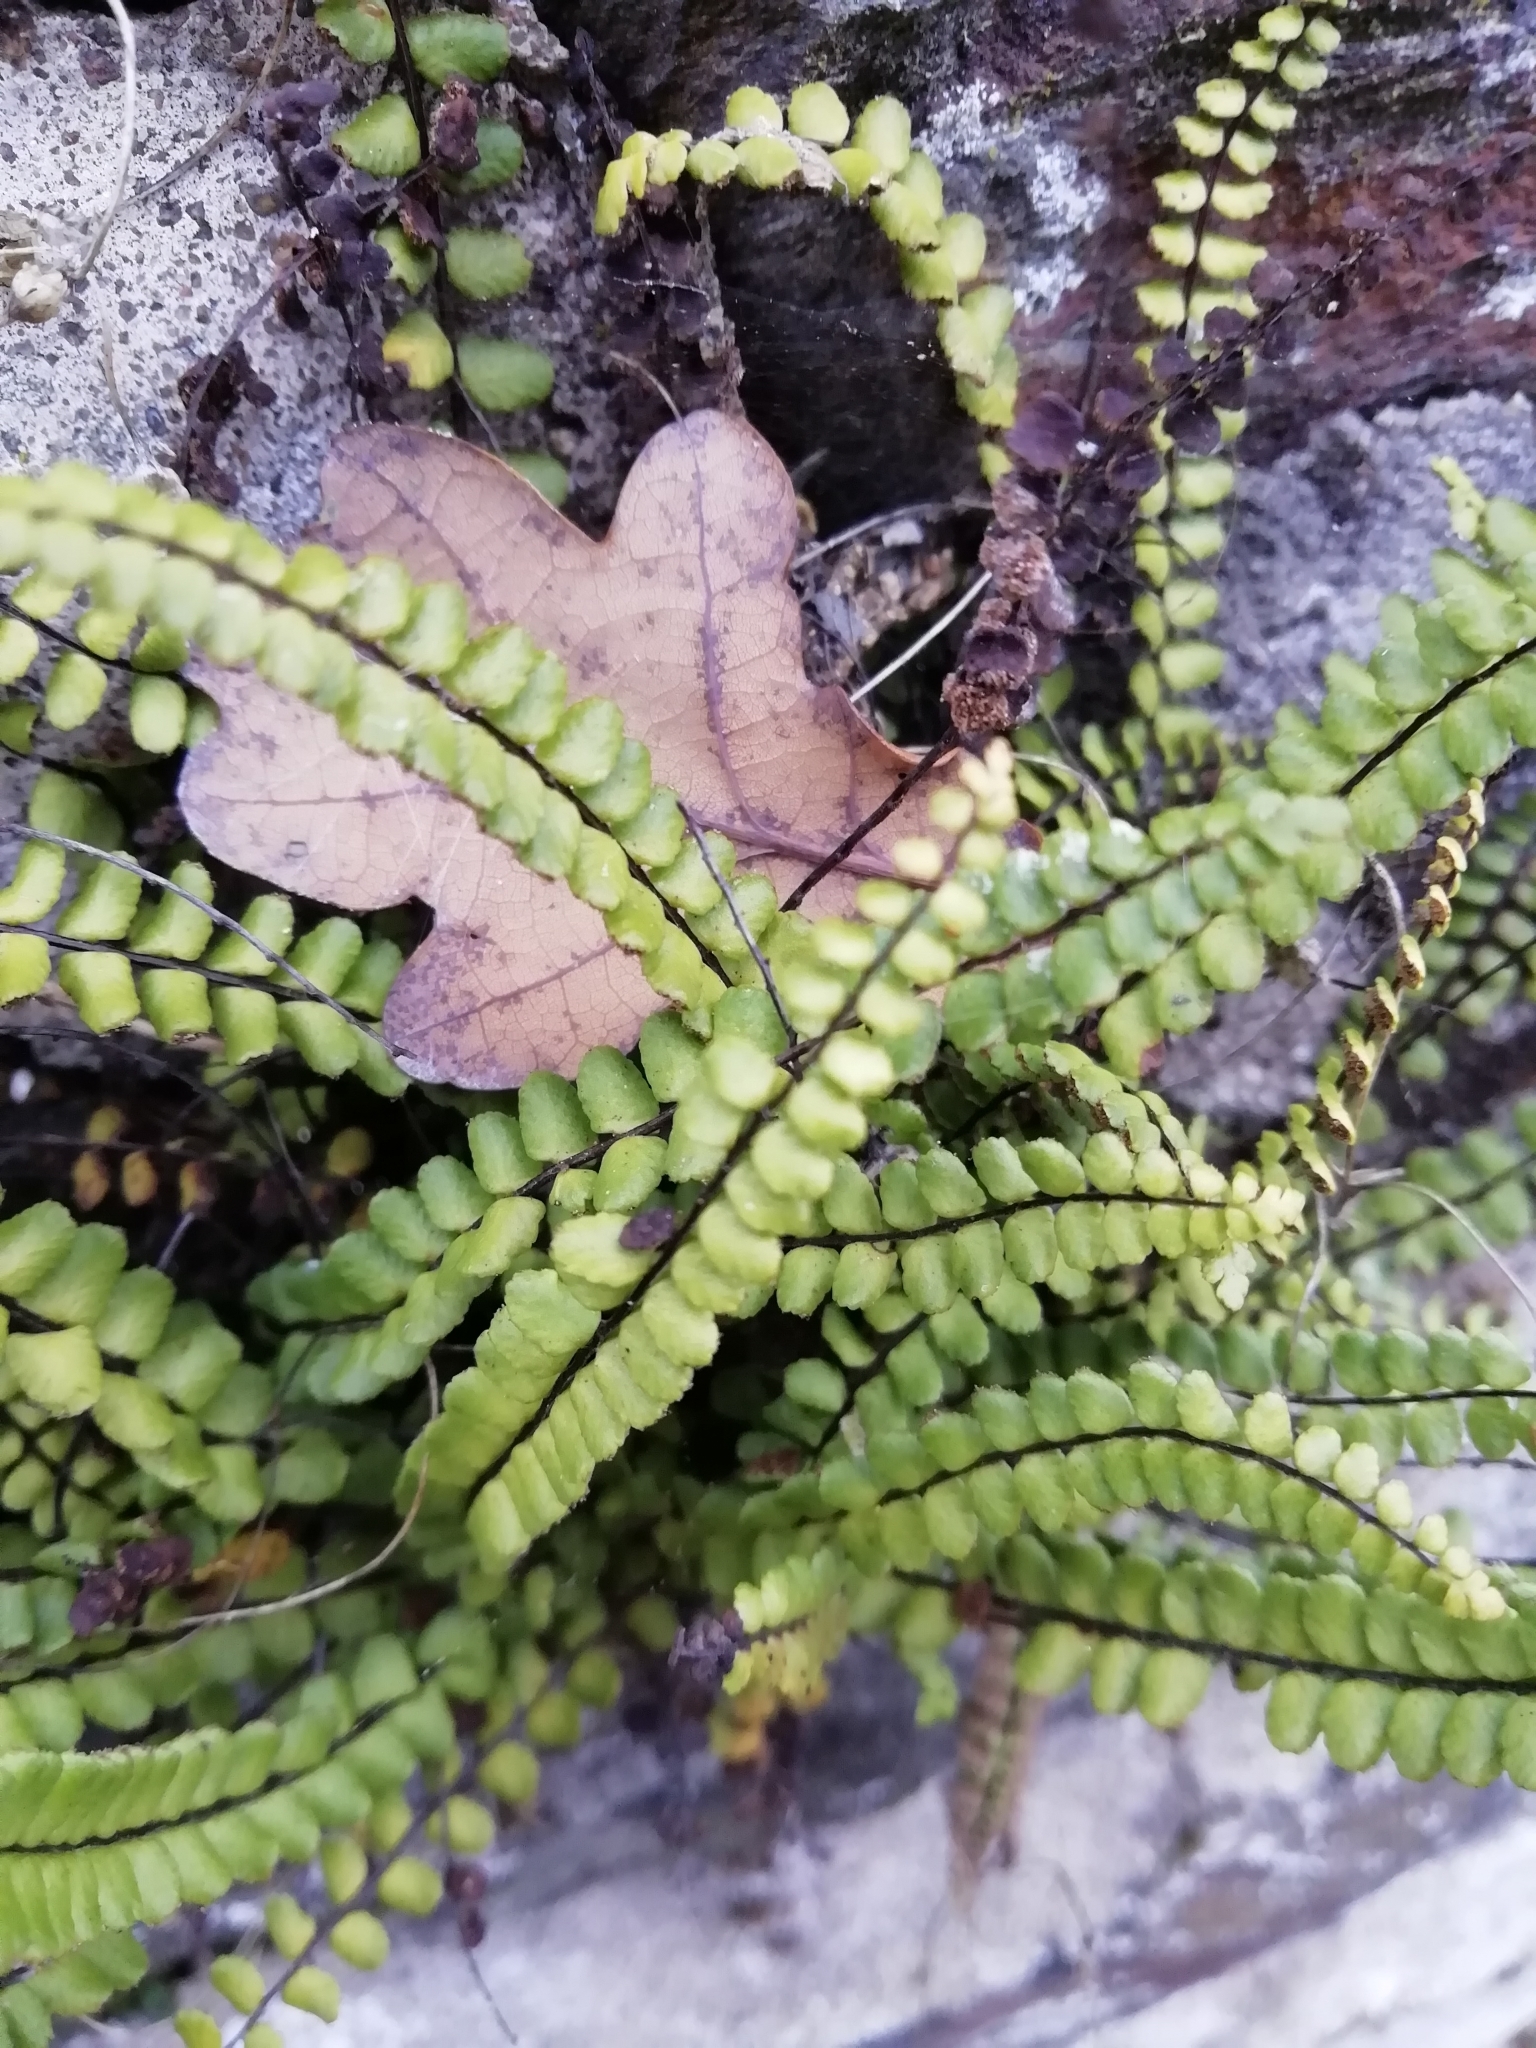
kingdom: Plantae
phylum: Tracheophyta
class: Polypodiopsida
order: Polypodiales
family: Aspleniaceae
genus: Asplenium
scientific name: Asplenium quadrivalens
